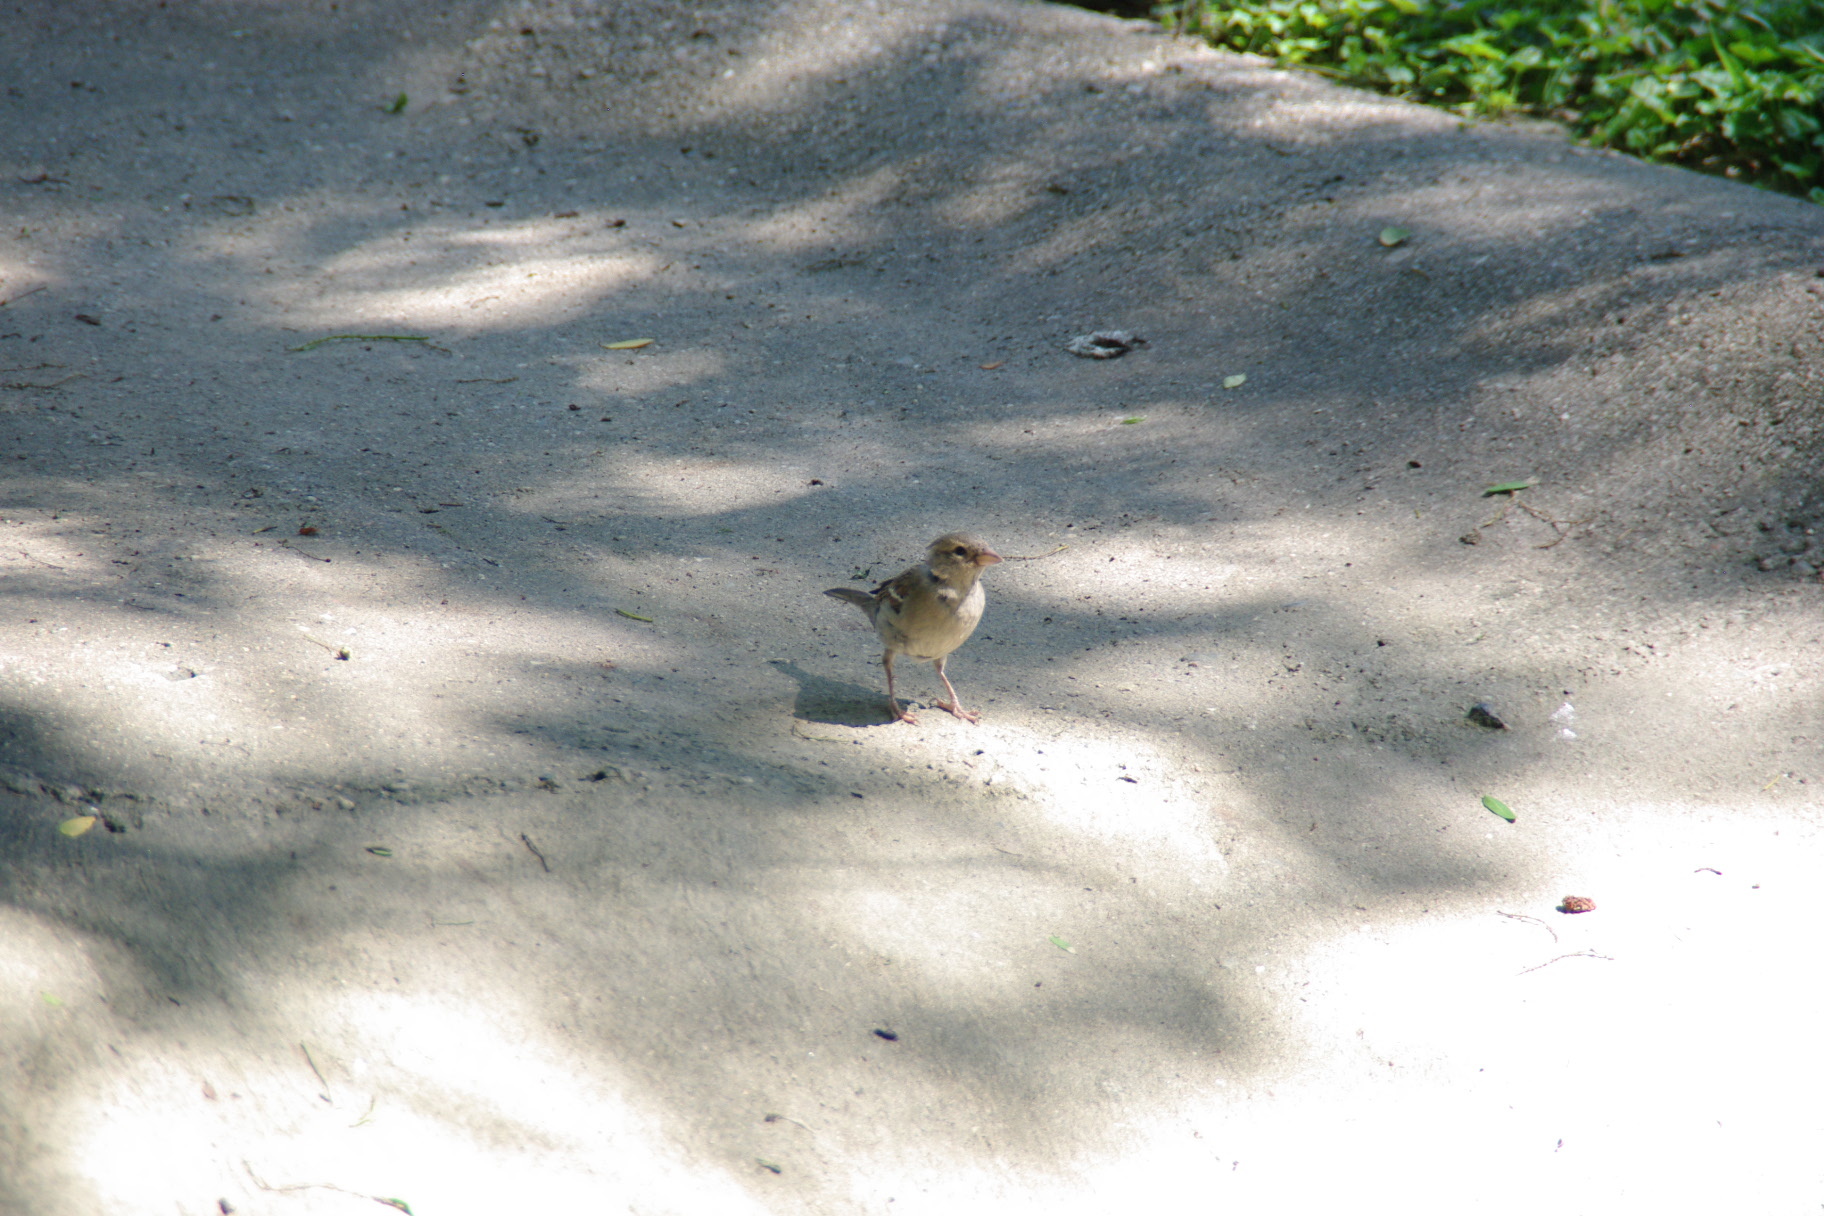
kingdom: Animalia
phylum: Chordata
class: Aves
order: Passeriformes
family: Passeridae
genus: Passer
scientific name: Passer domesticus
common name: House sparrow
